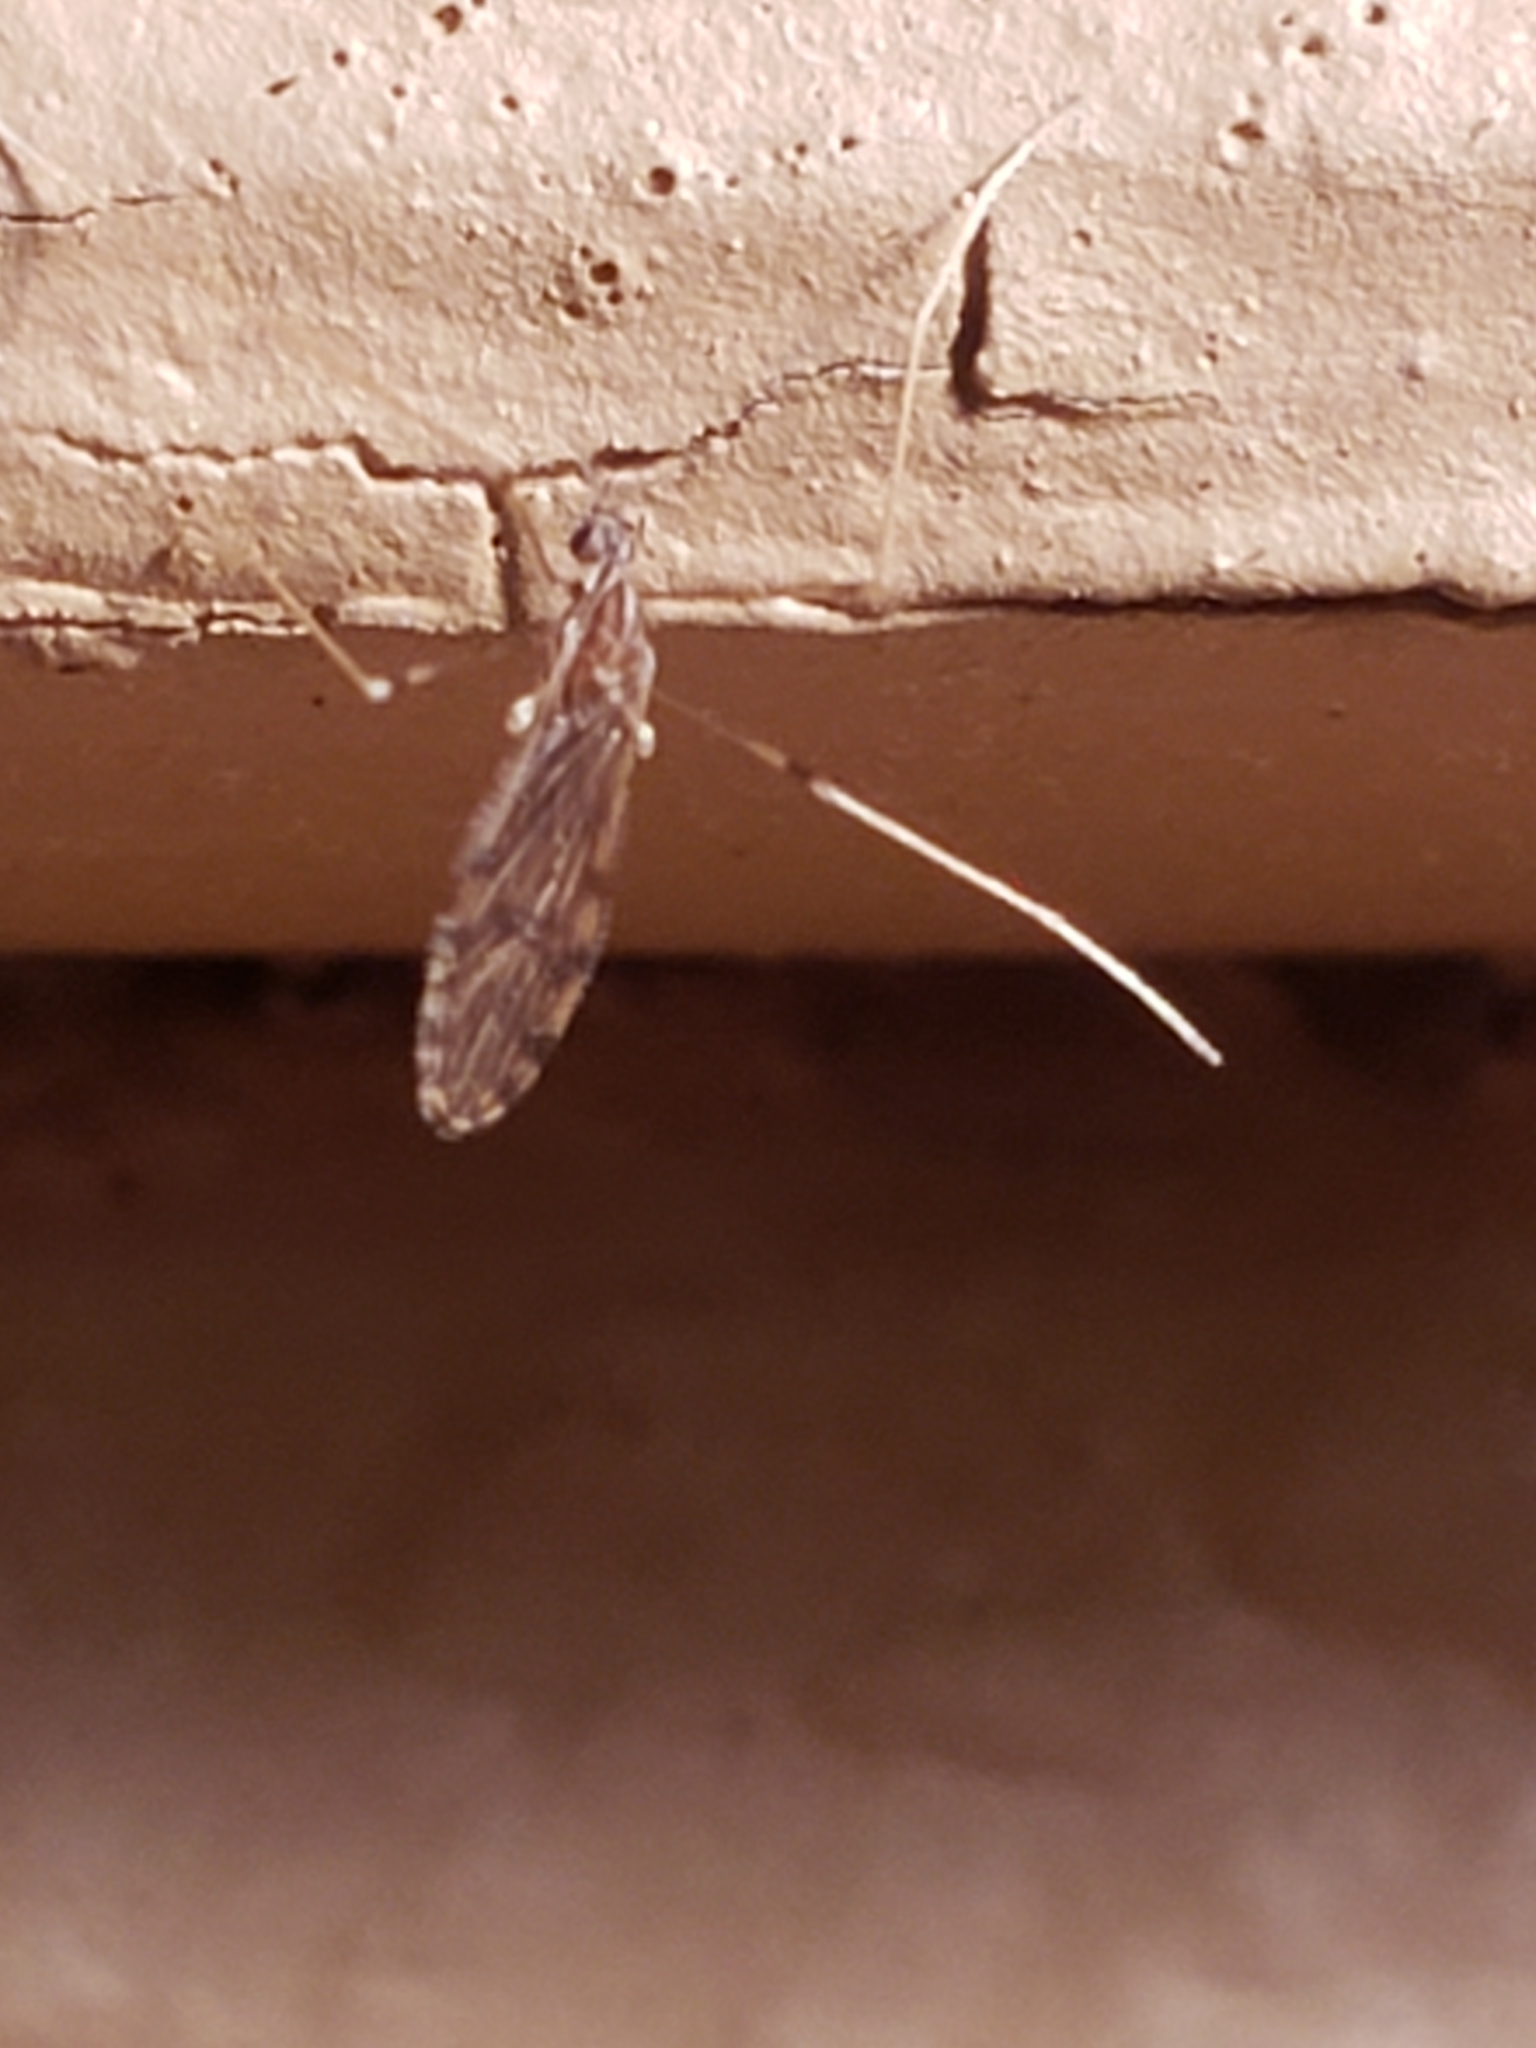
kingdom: Animalia
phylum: Arthropoda
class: Insecta
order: Diptera
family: Limoniidae
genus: Erioptera
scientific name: Erioptera parva
